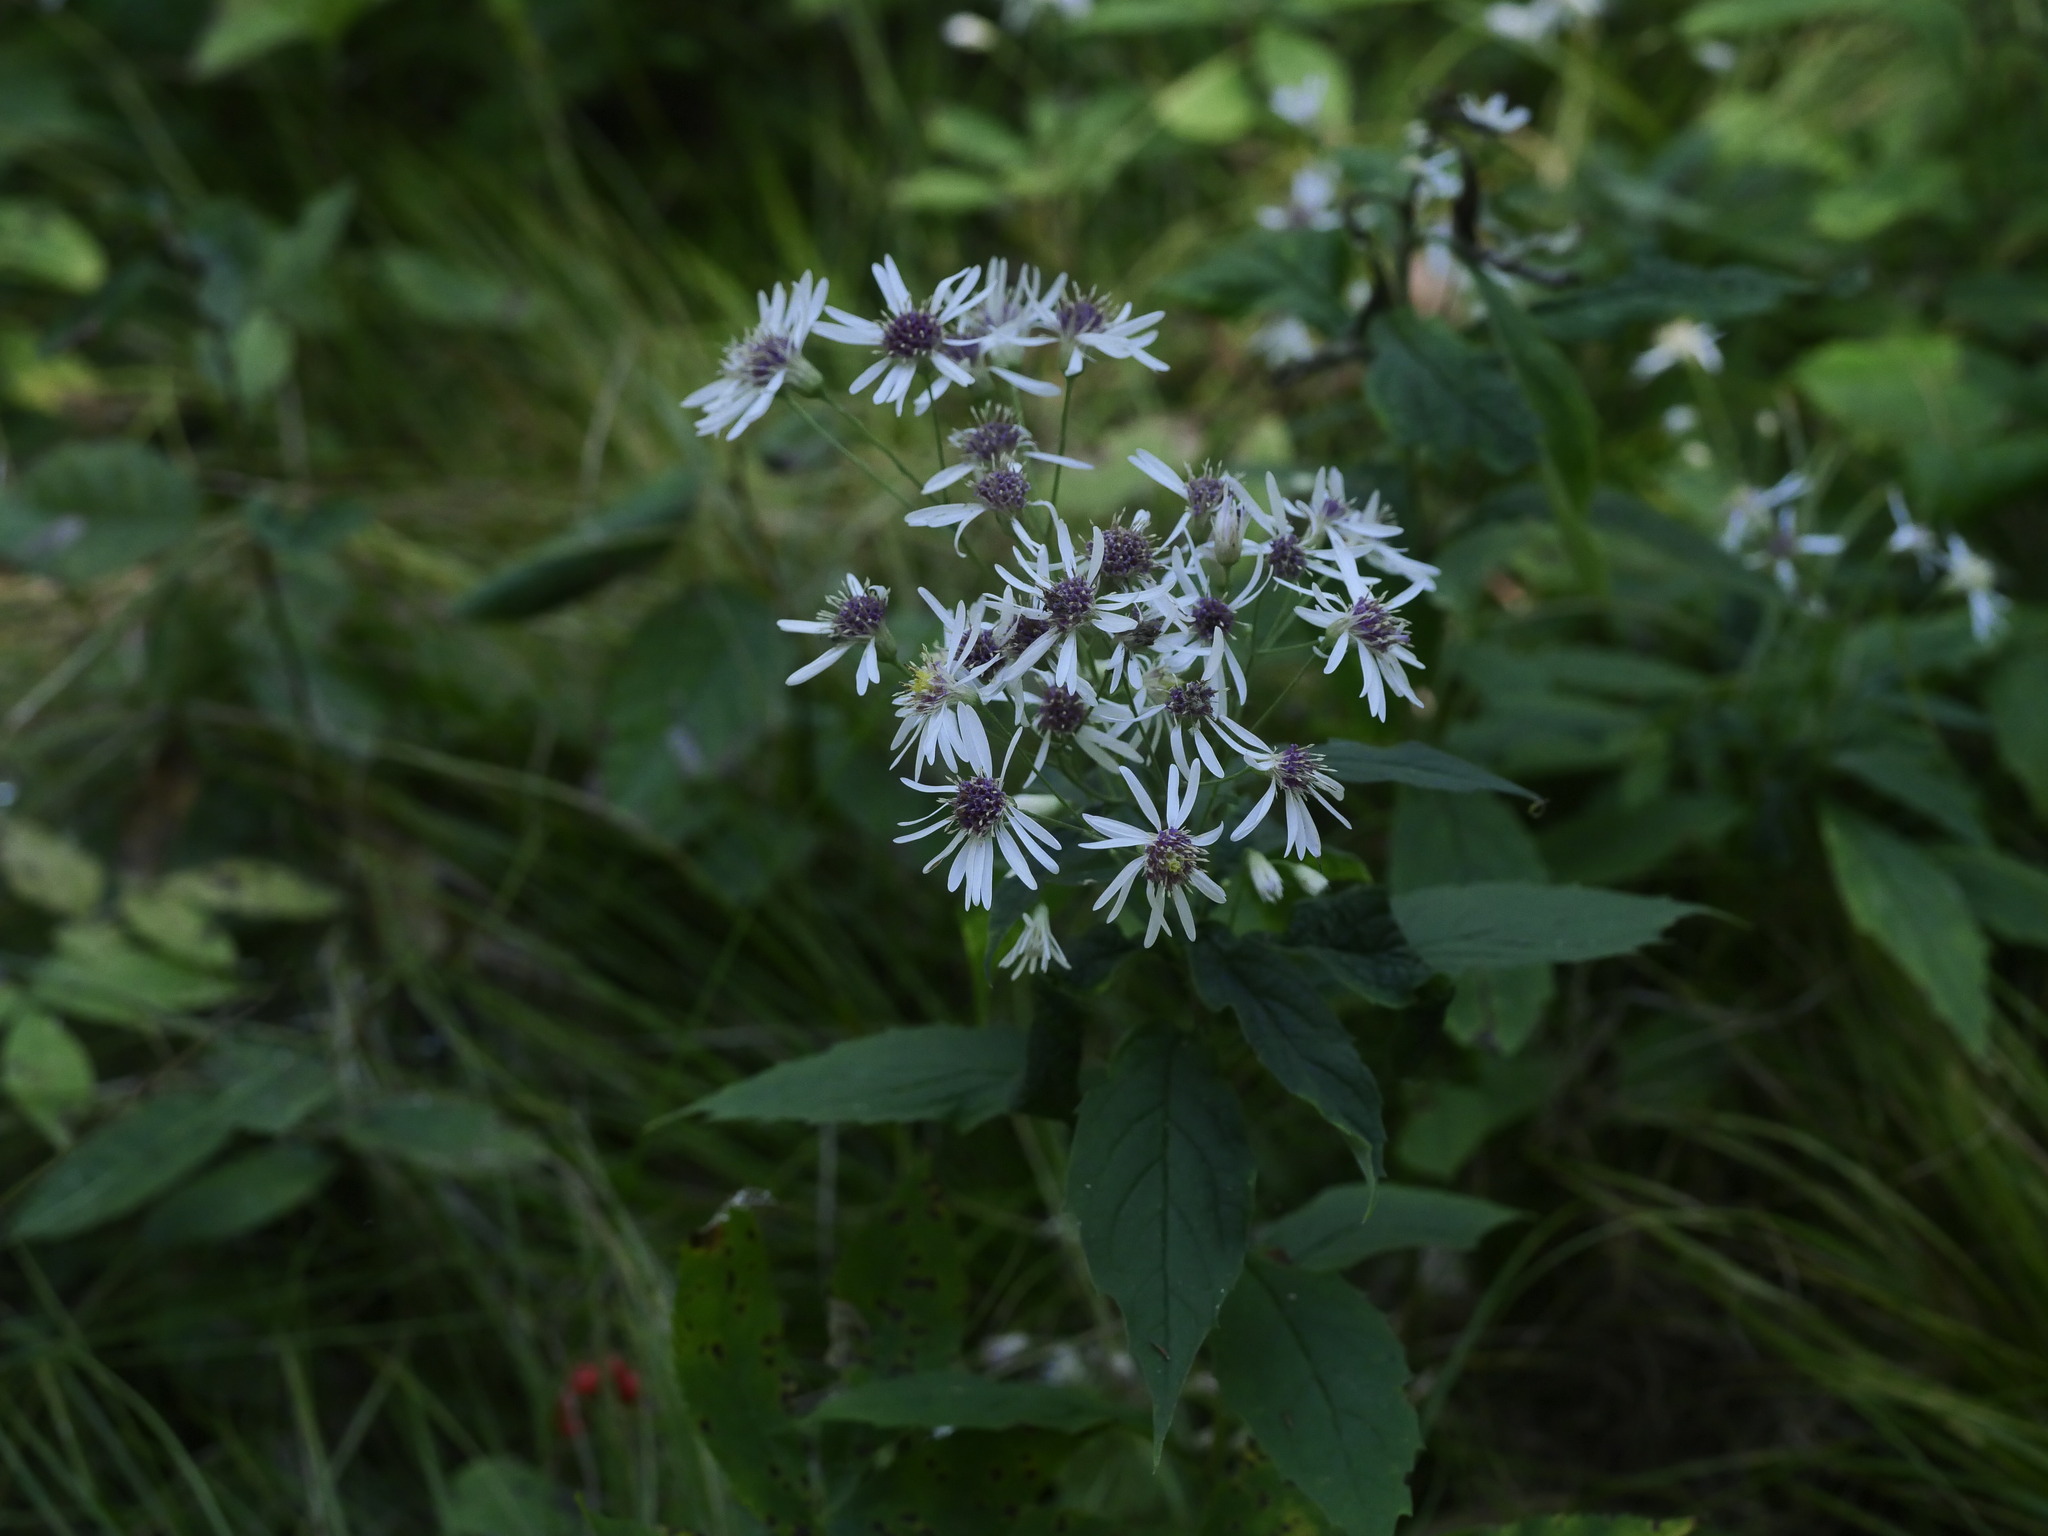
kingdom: Plantae
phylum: Tracheophyta
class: Magnoliopsida
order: Asterales
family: Asteraceae
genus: Oclemena
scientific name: Oclemena acuminata
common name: Mountain aster
